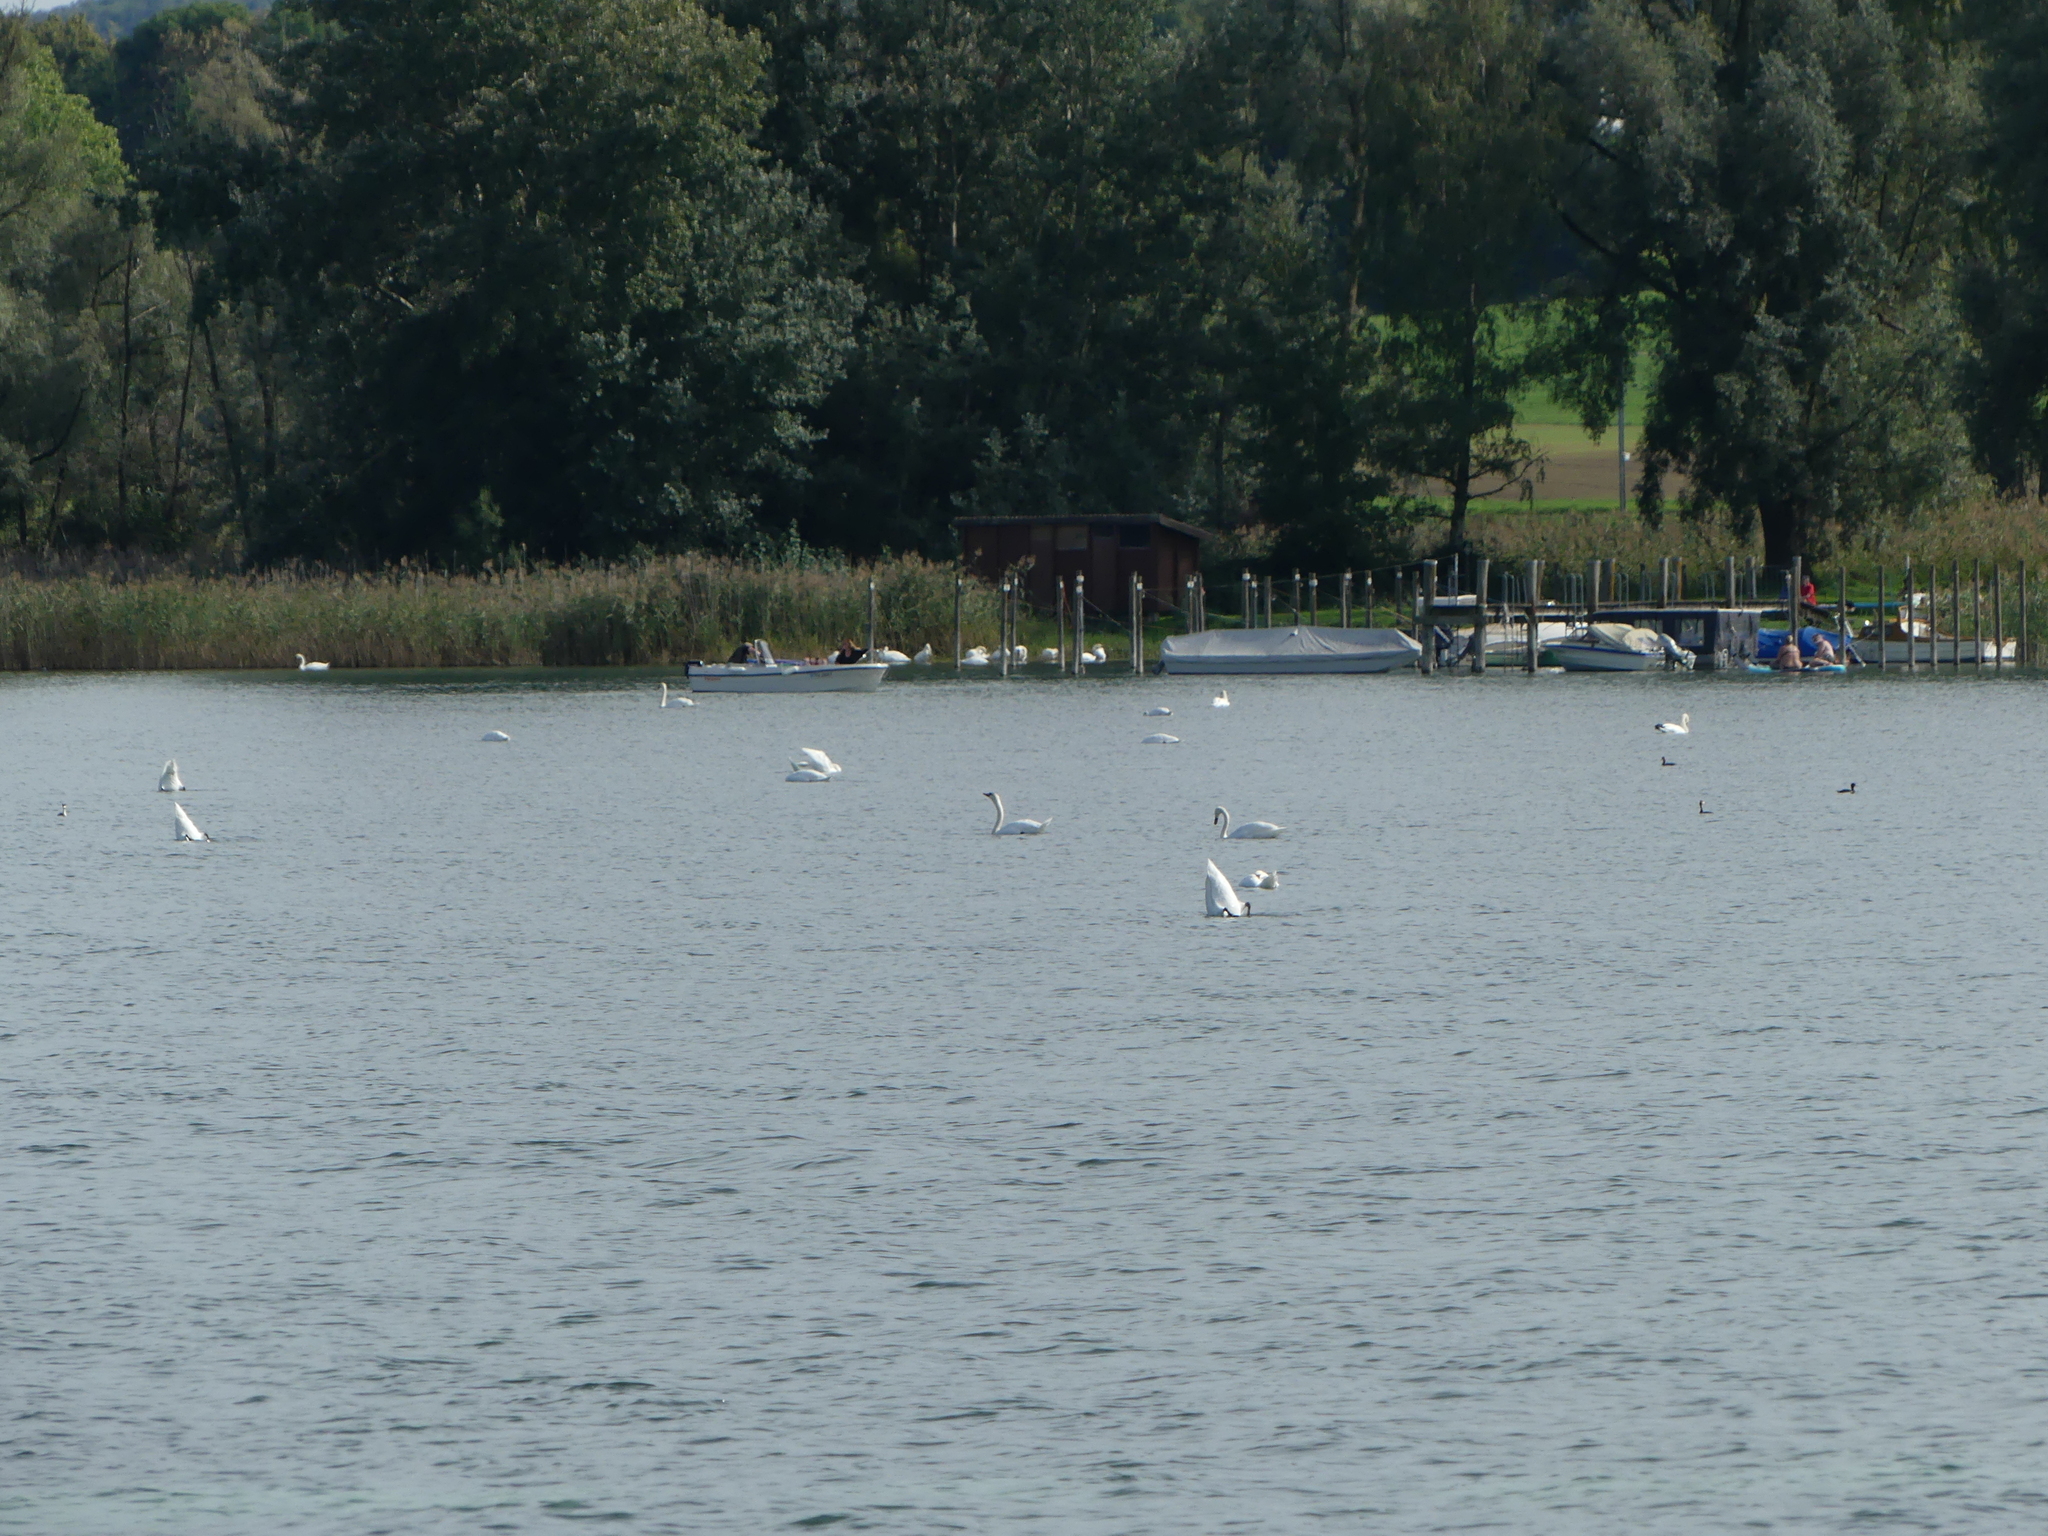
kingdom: Animalia
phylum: Chordata
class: Aves
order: Anseriformes
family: Anatidae
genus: Cygnus
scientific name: Cygnus olor
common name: Mute swan
